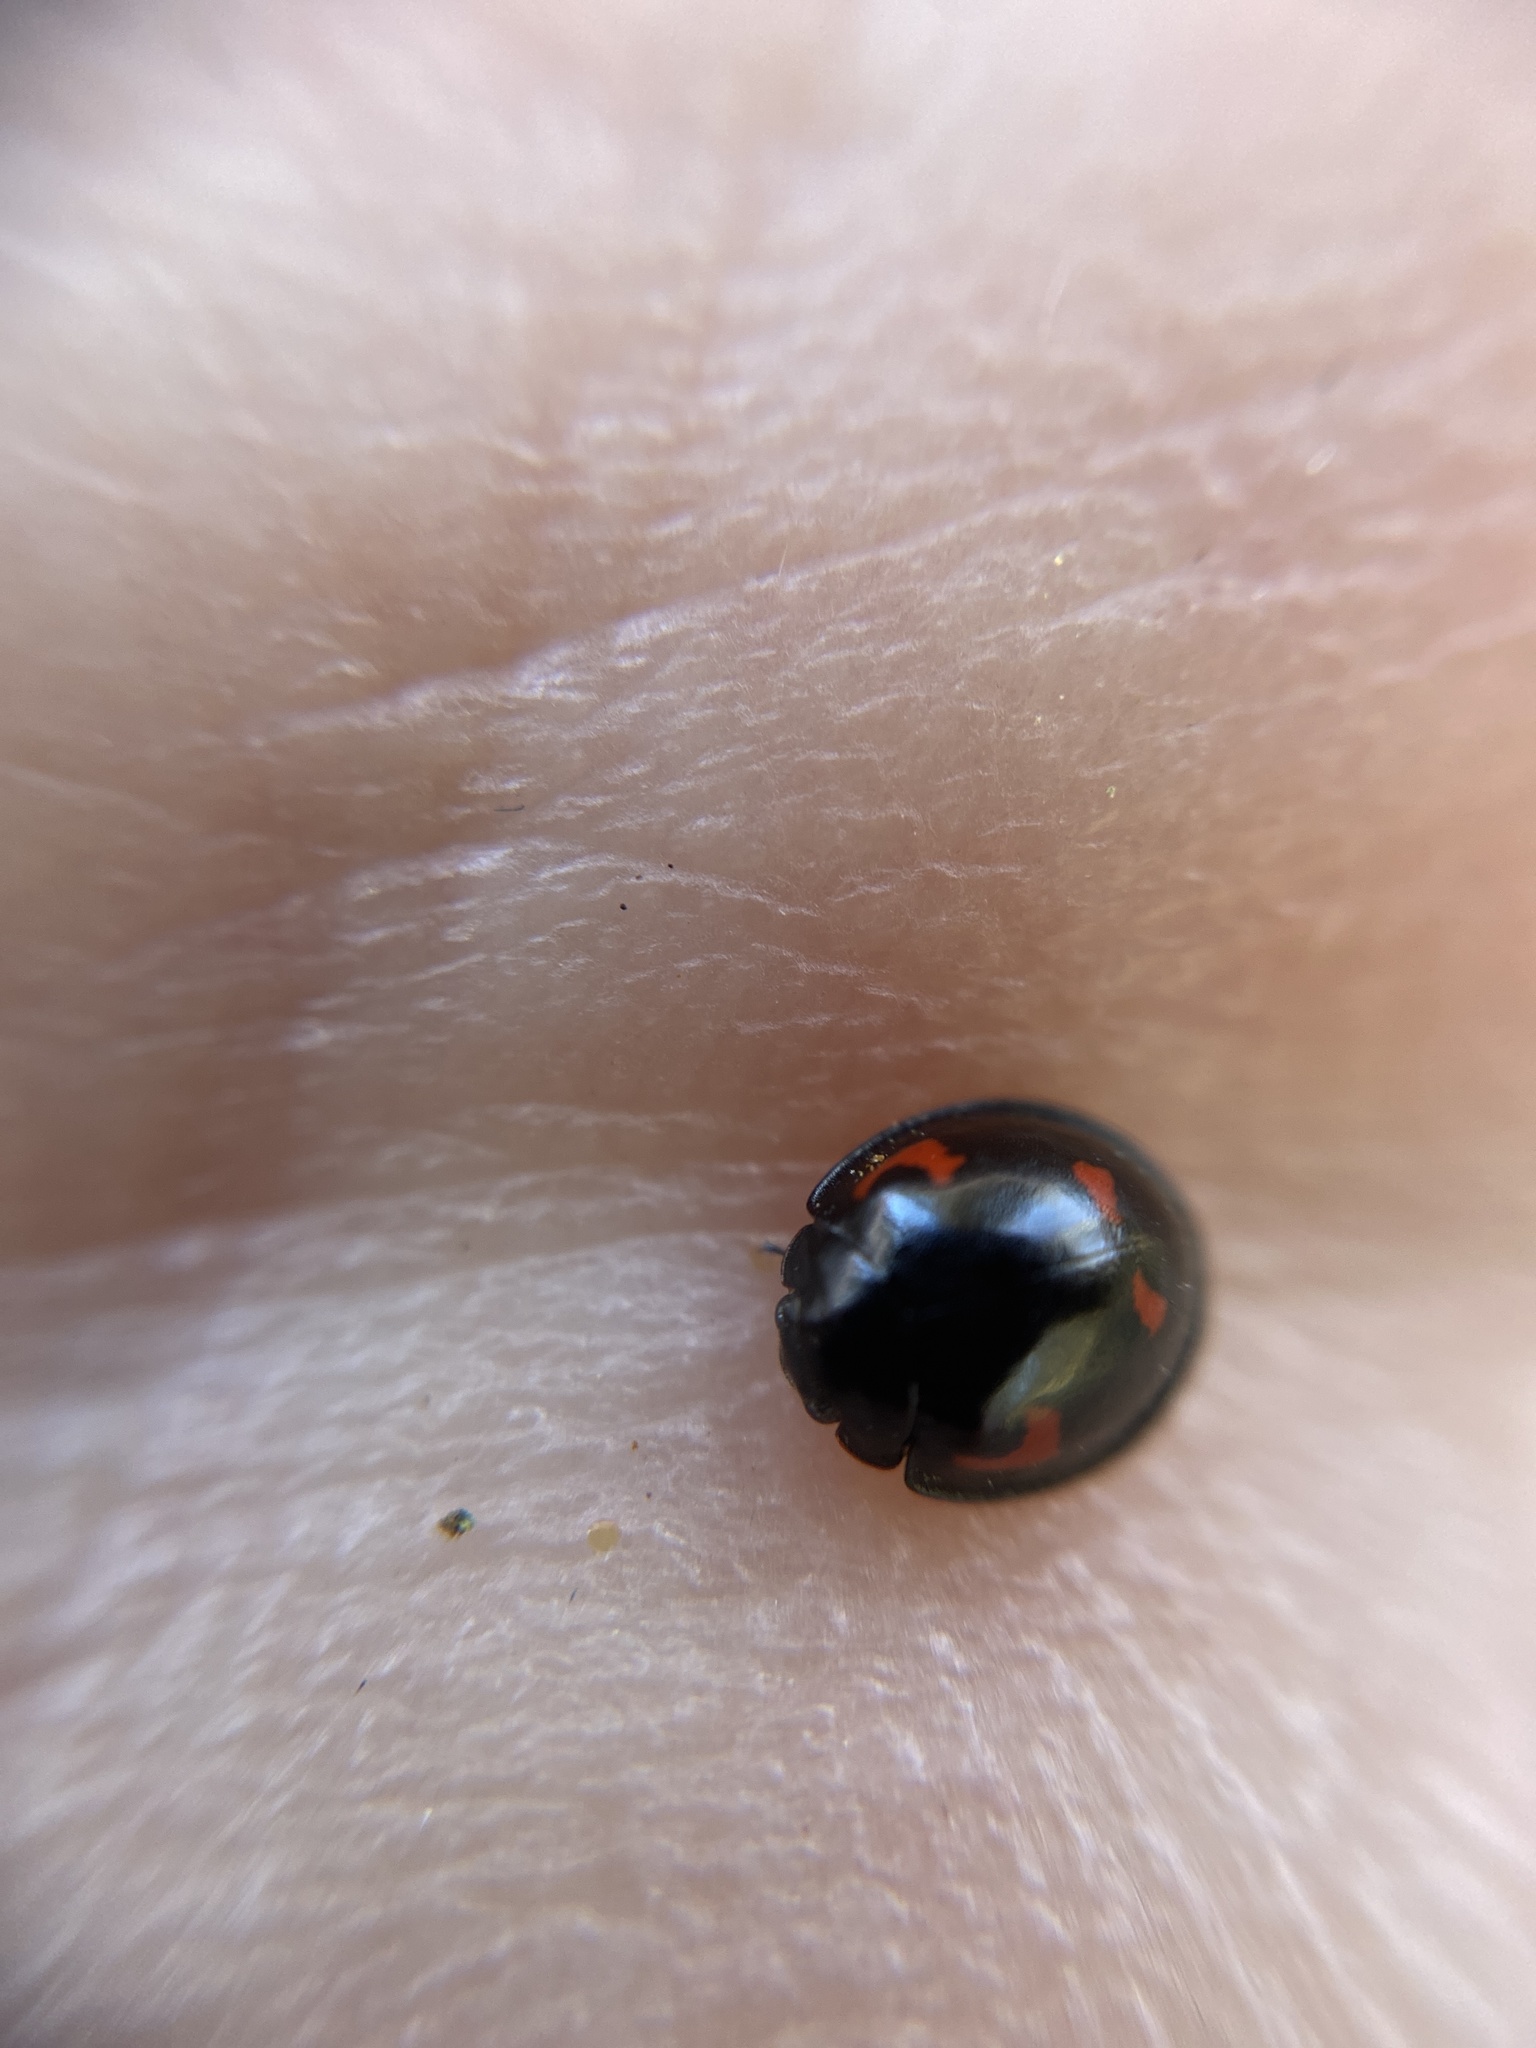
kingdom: Animalia
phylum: Arthropoda
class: Insecta
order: Coleoptera
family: Coccinellidae
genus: Brumus
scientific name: Brumus quadripustulatus
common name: Ladybird beetle
